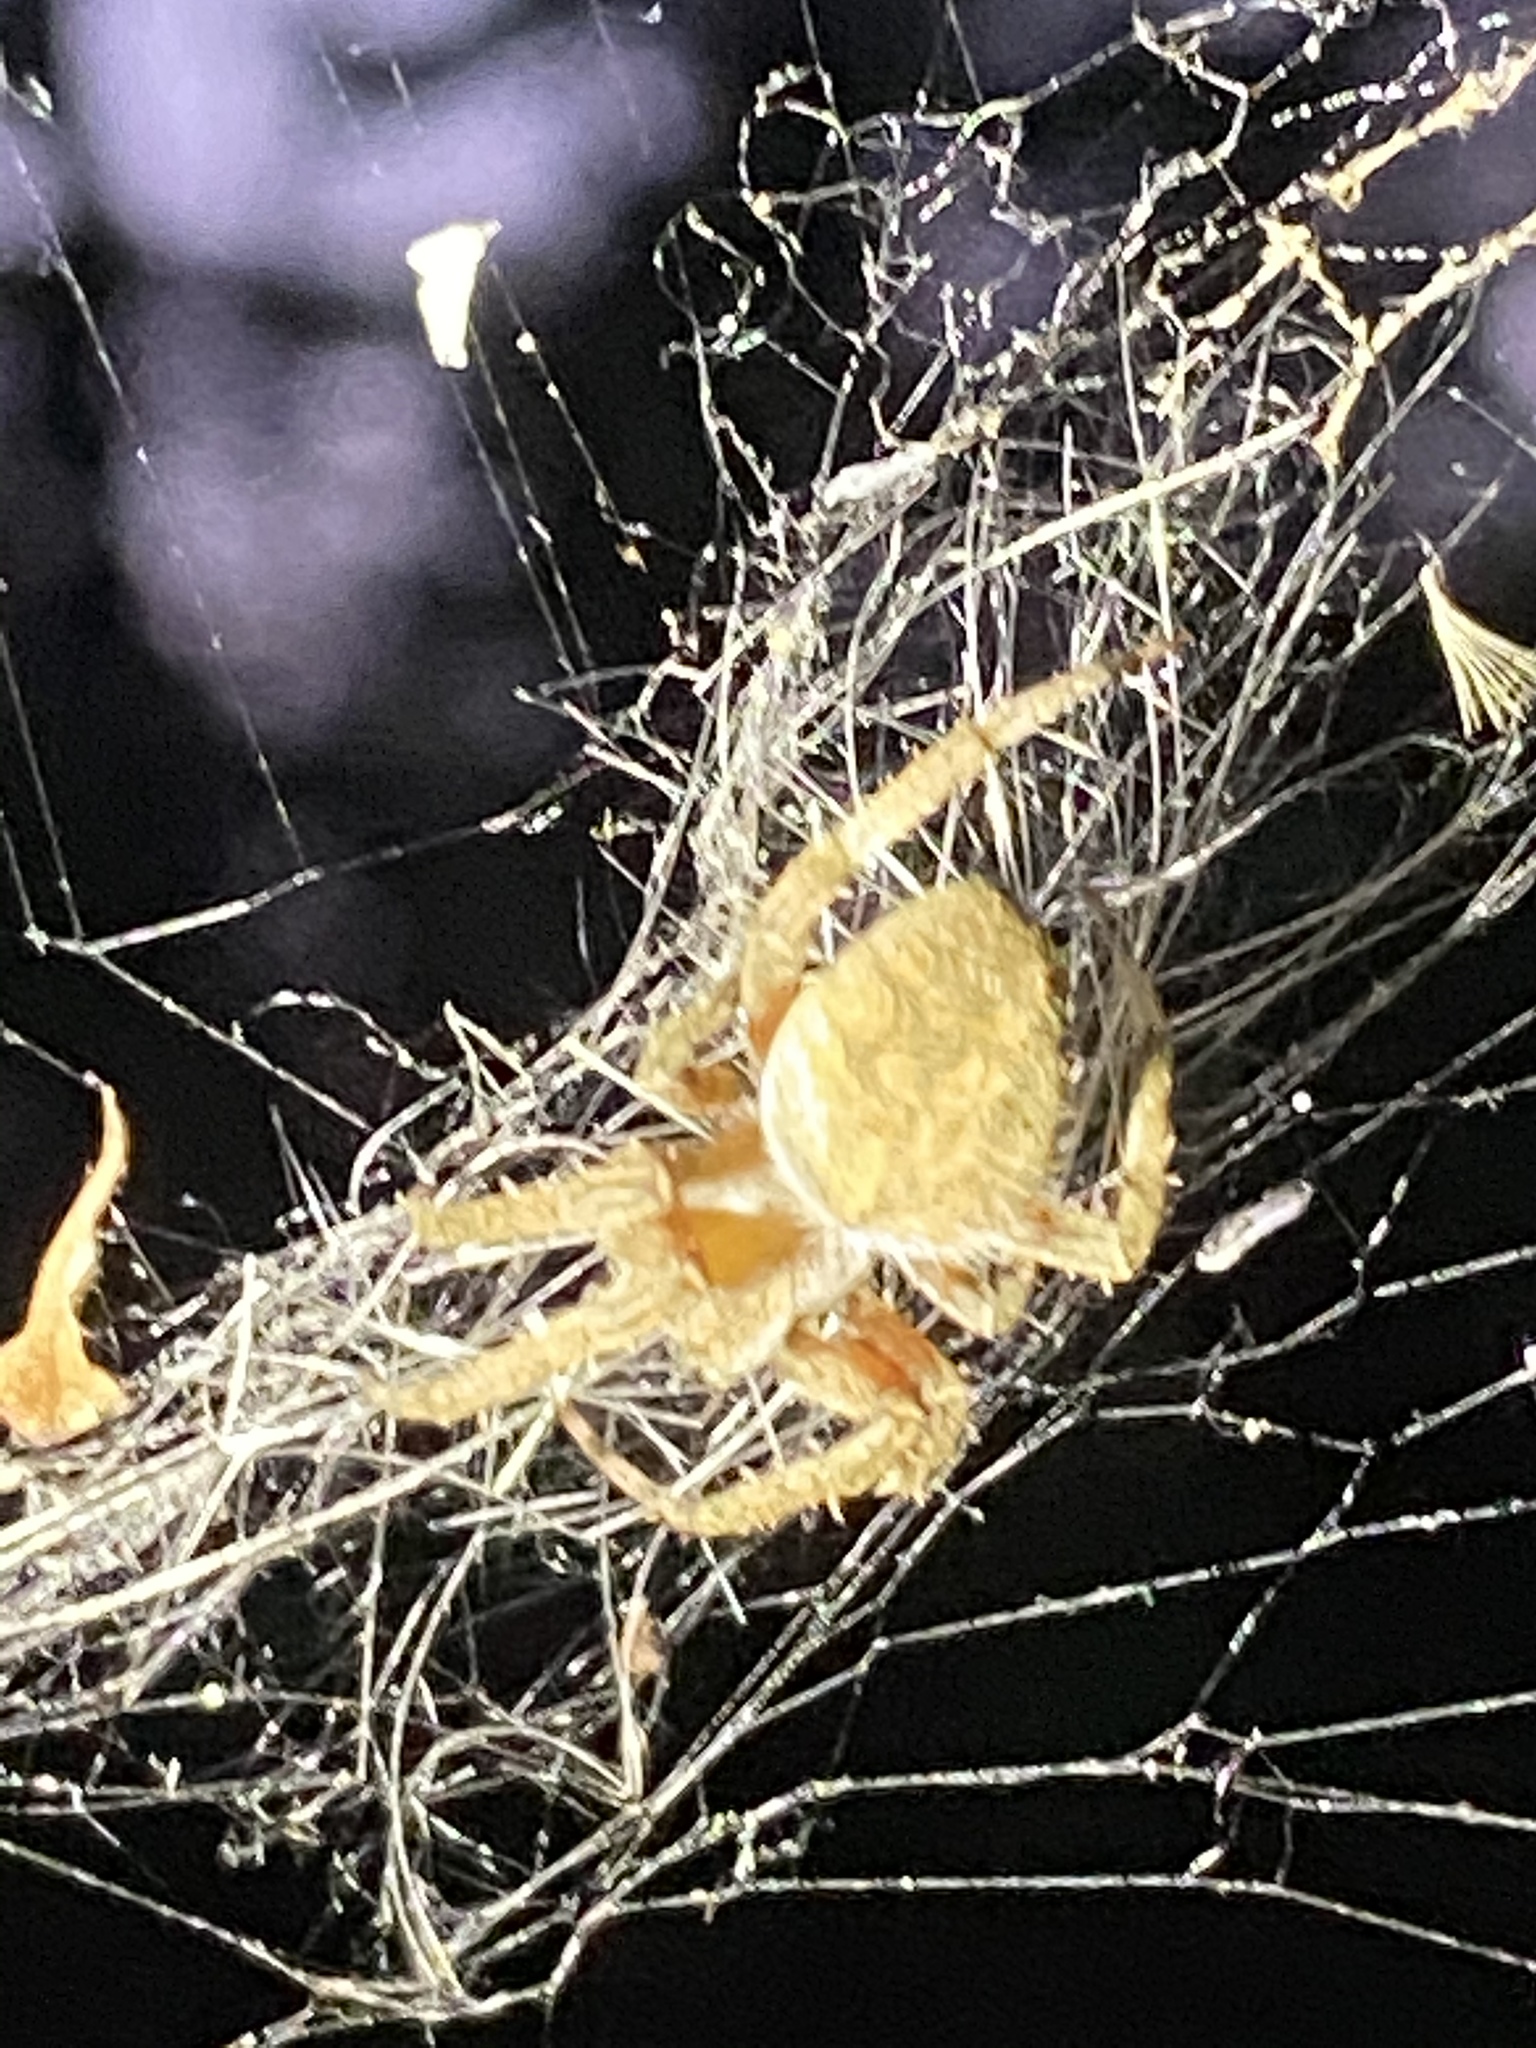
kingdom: Animalia
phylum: Arthropoda
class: Arachnida
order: Araneae
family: Araneidae
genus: Neoscona
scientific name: Neoscona crucifera
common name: Spotted orbweaver
